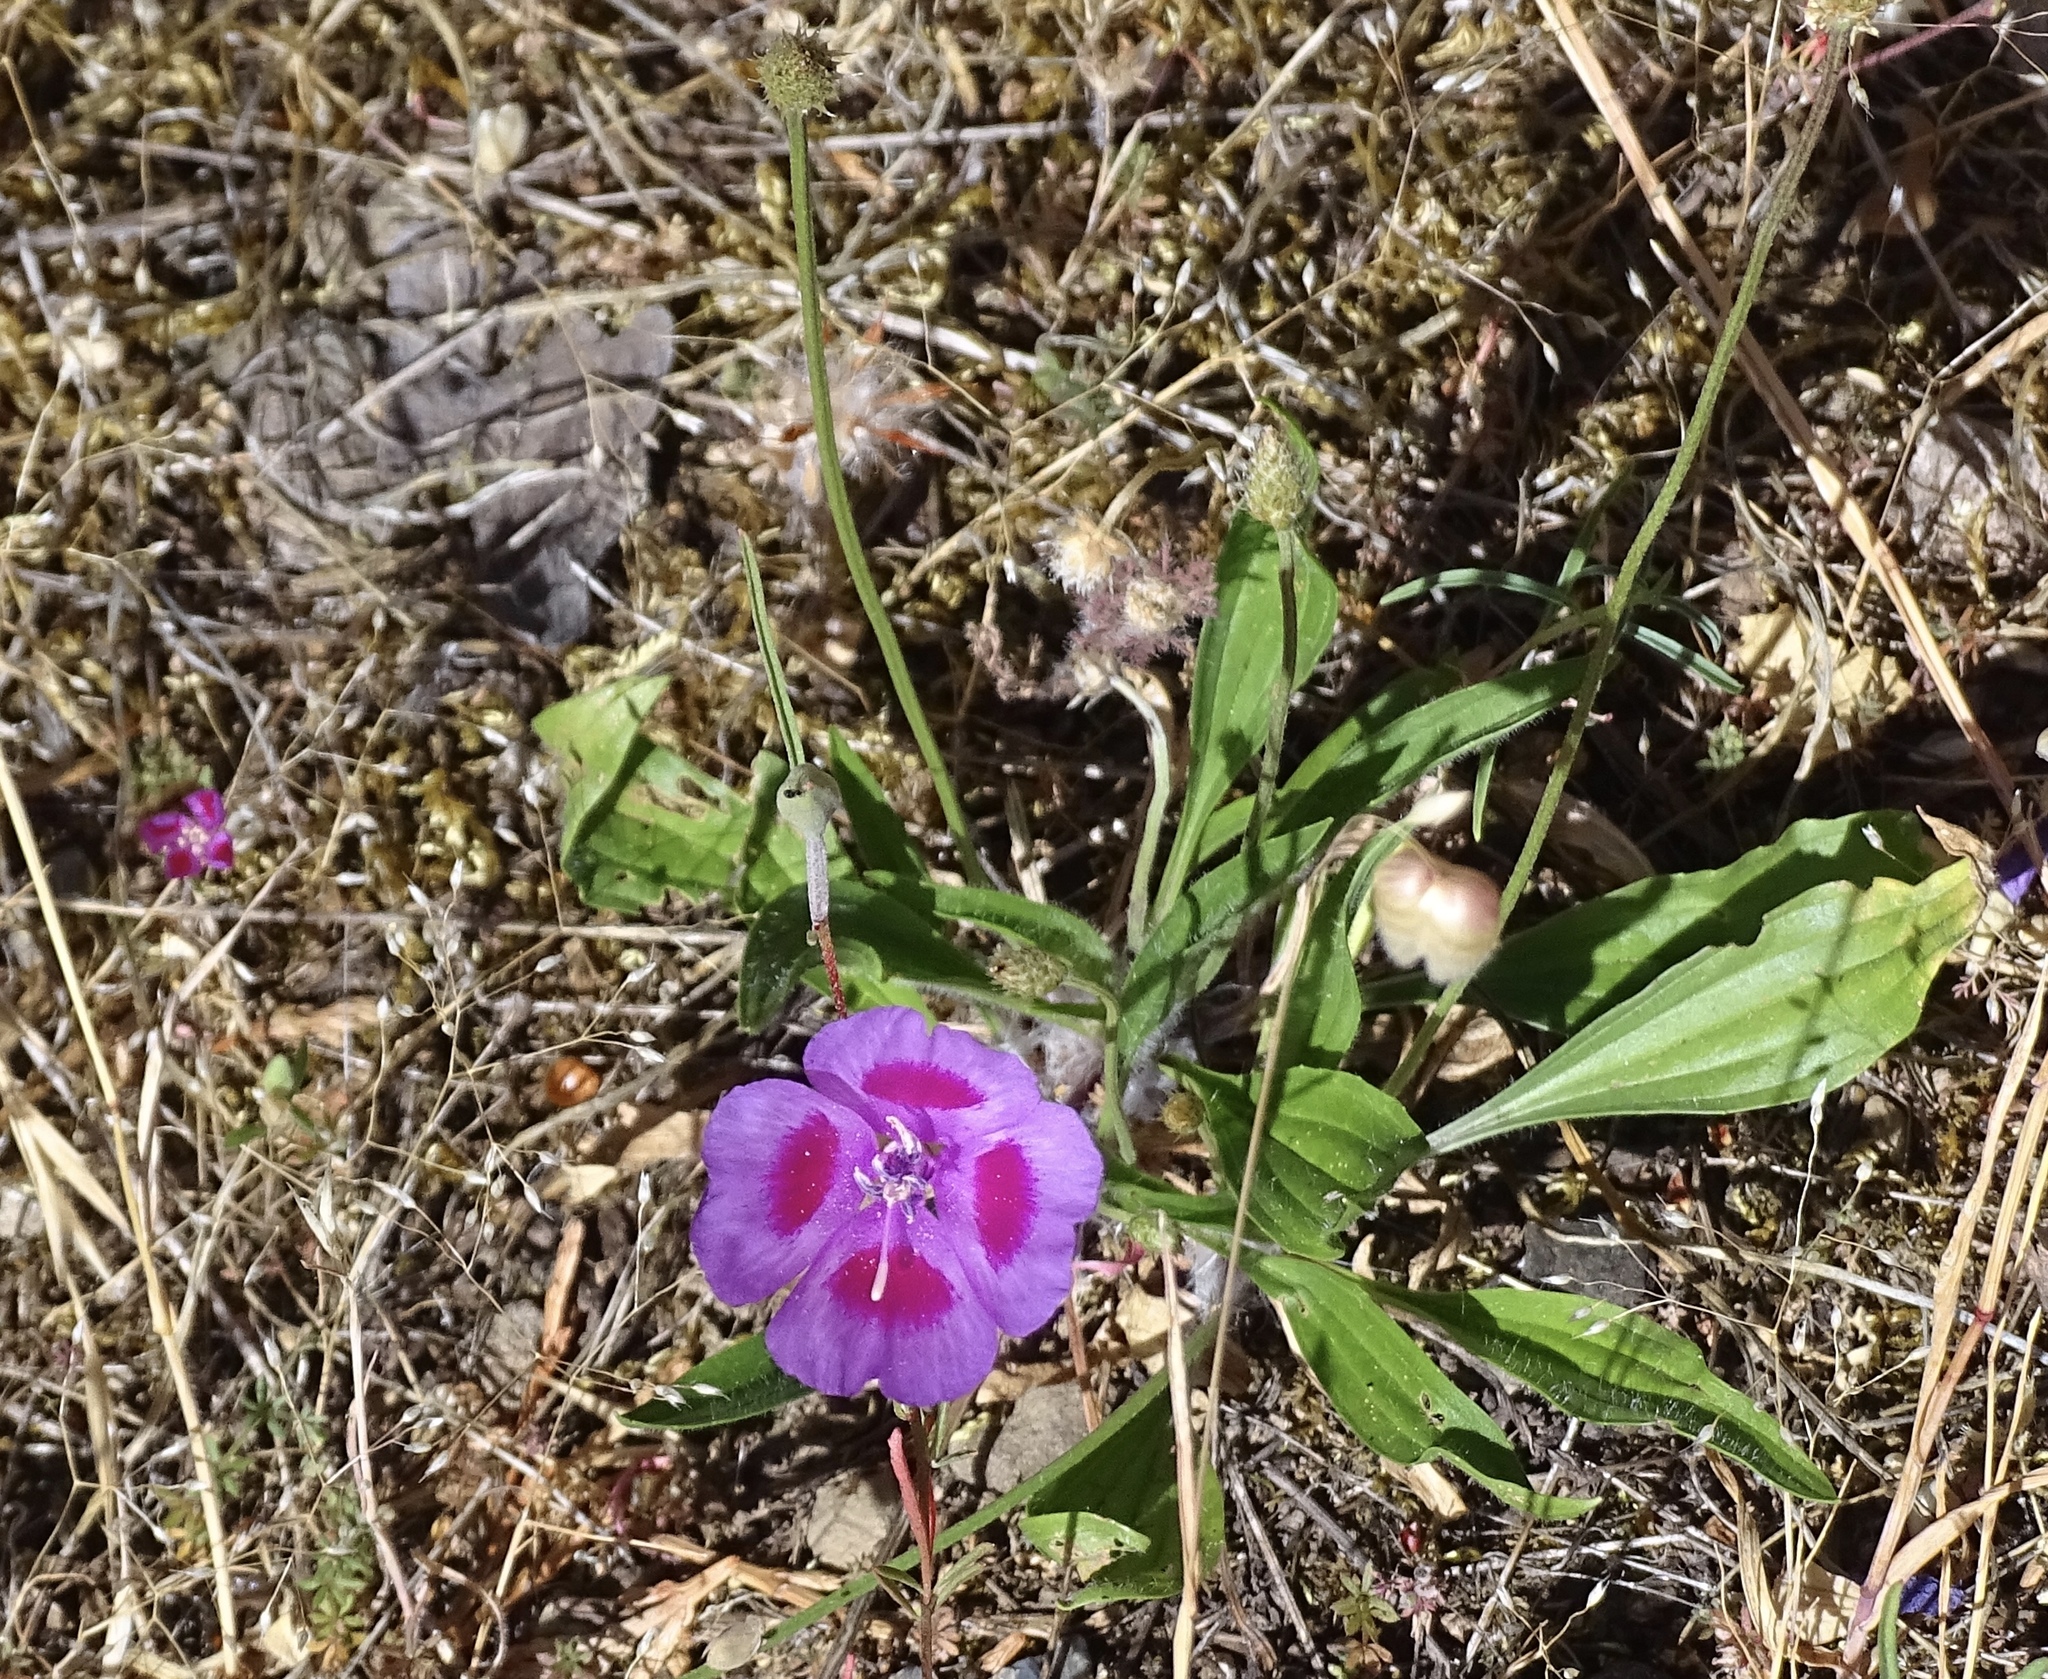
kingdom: Plantae
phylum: Tracheophyta
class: Magnoliopsida
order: Myrtales
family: Onagraceae
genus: Clarkia
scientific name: Clarkia amoena
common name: Godetia
